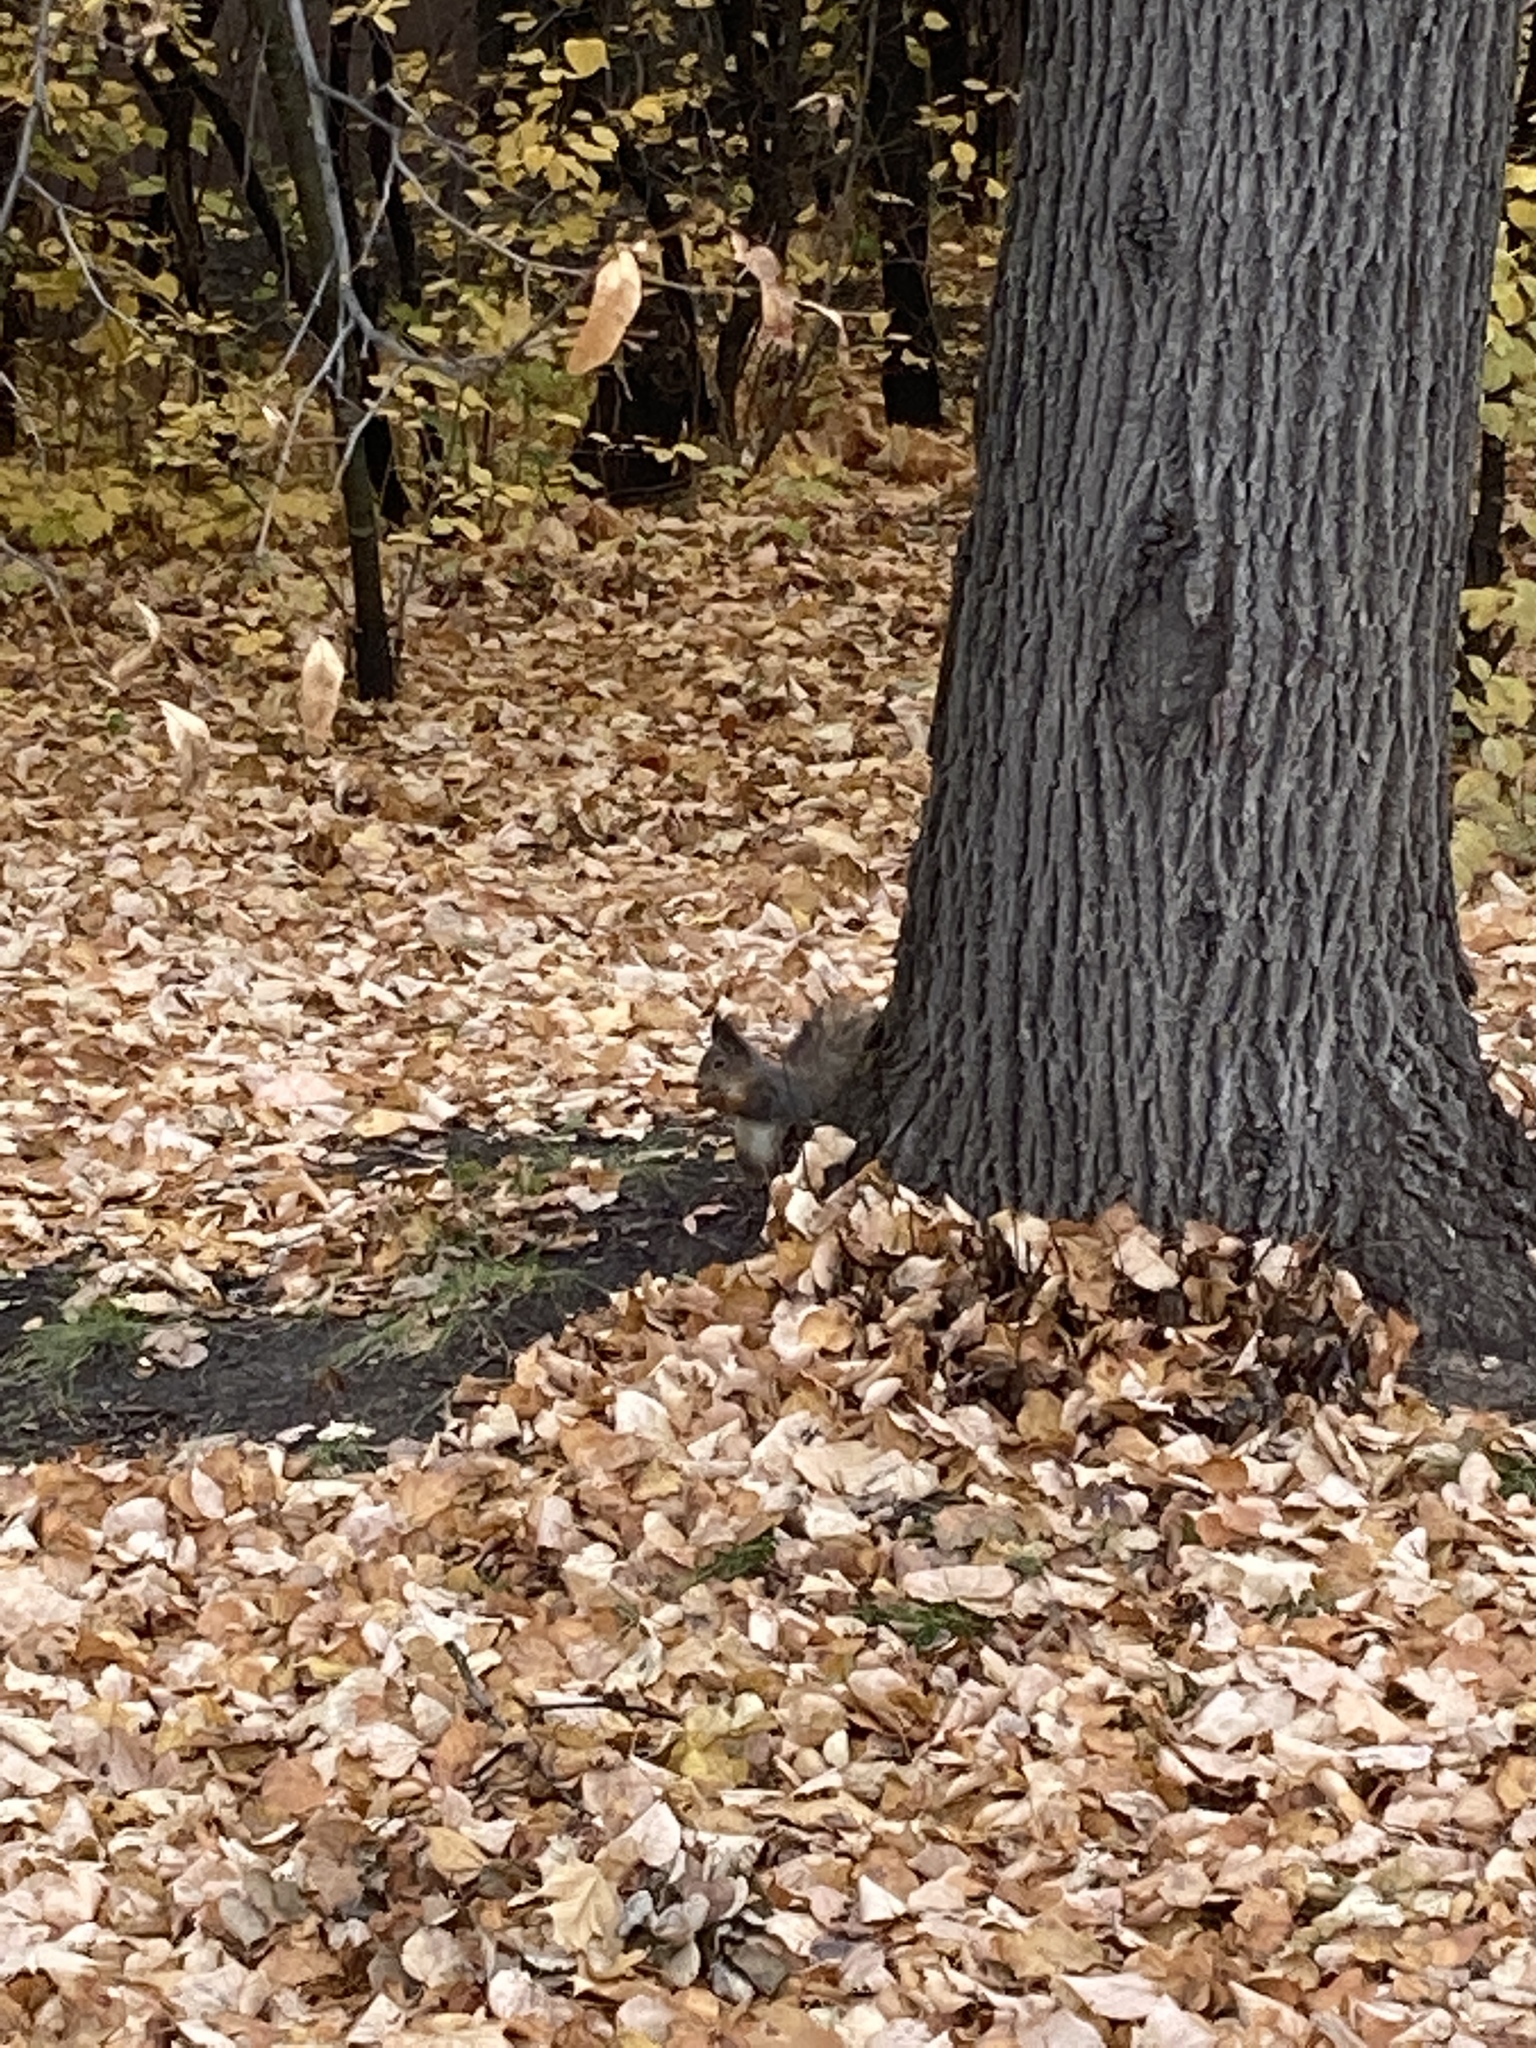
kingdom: Animalia
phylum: Chordata
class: Mammalia
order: Rodentia
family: Sciuridae
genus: Sciurus
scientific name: Sciurus vulgaris
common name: Eurasian red squirrel
